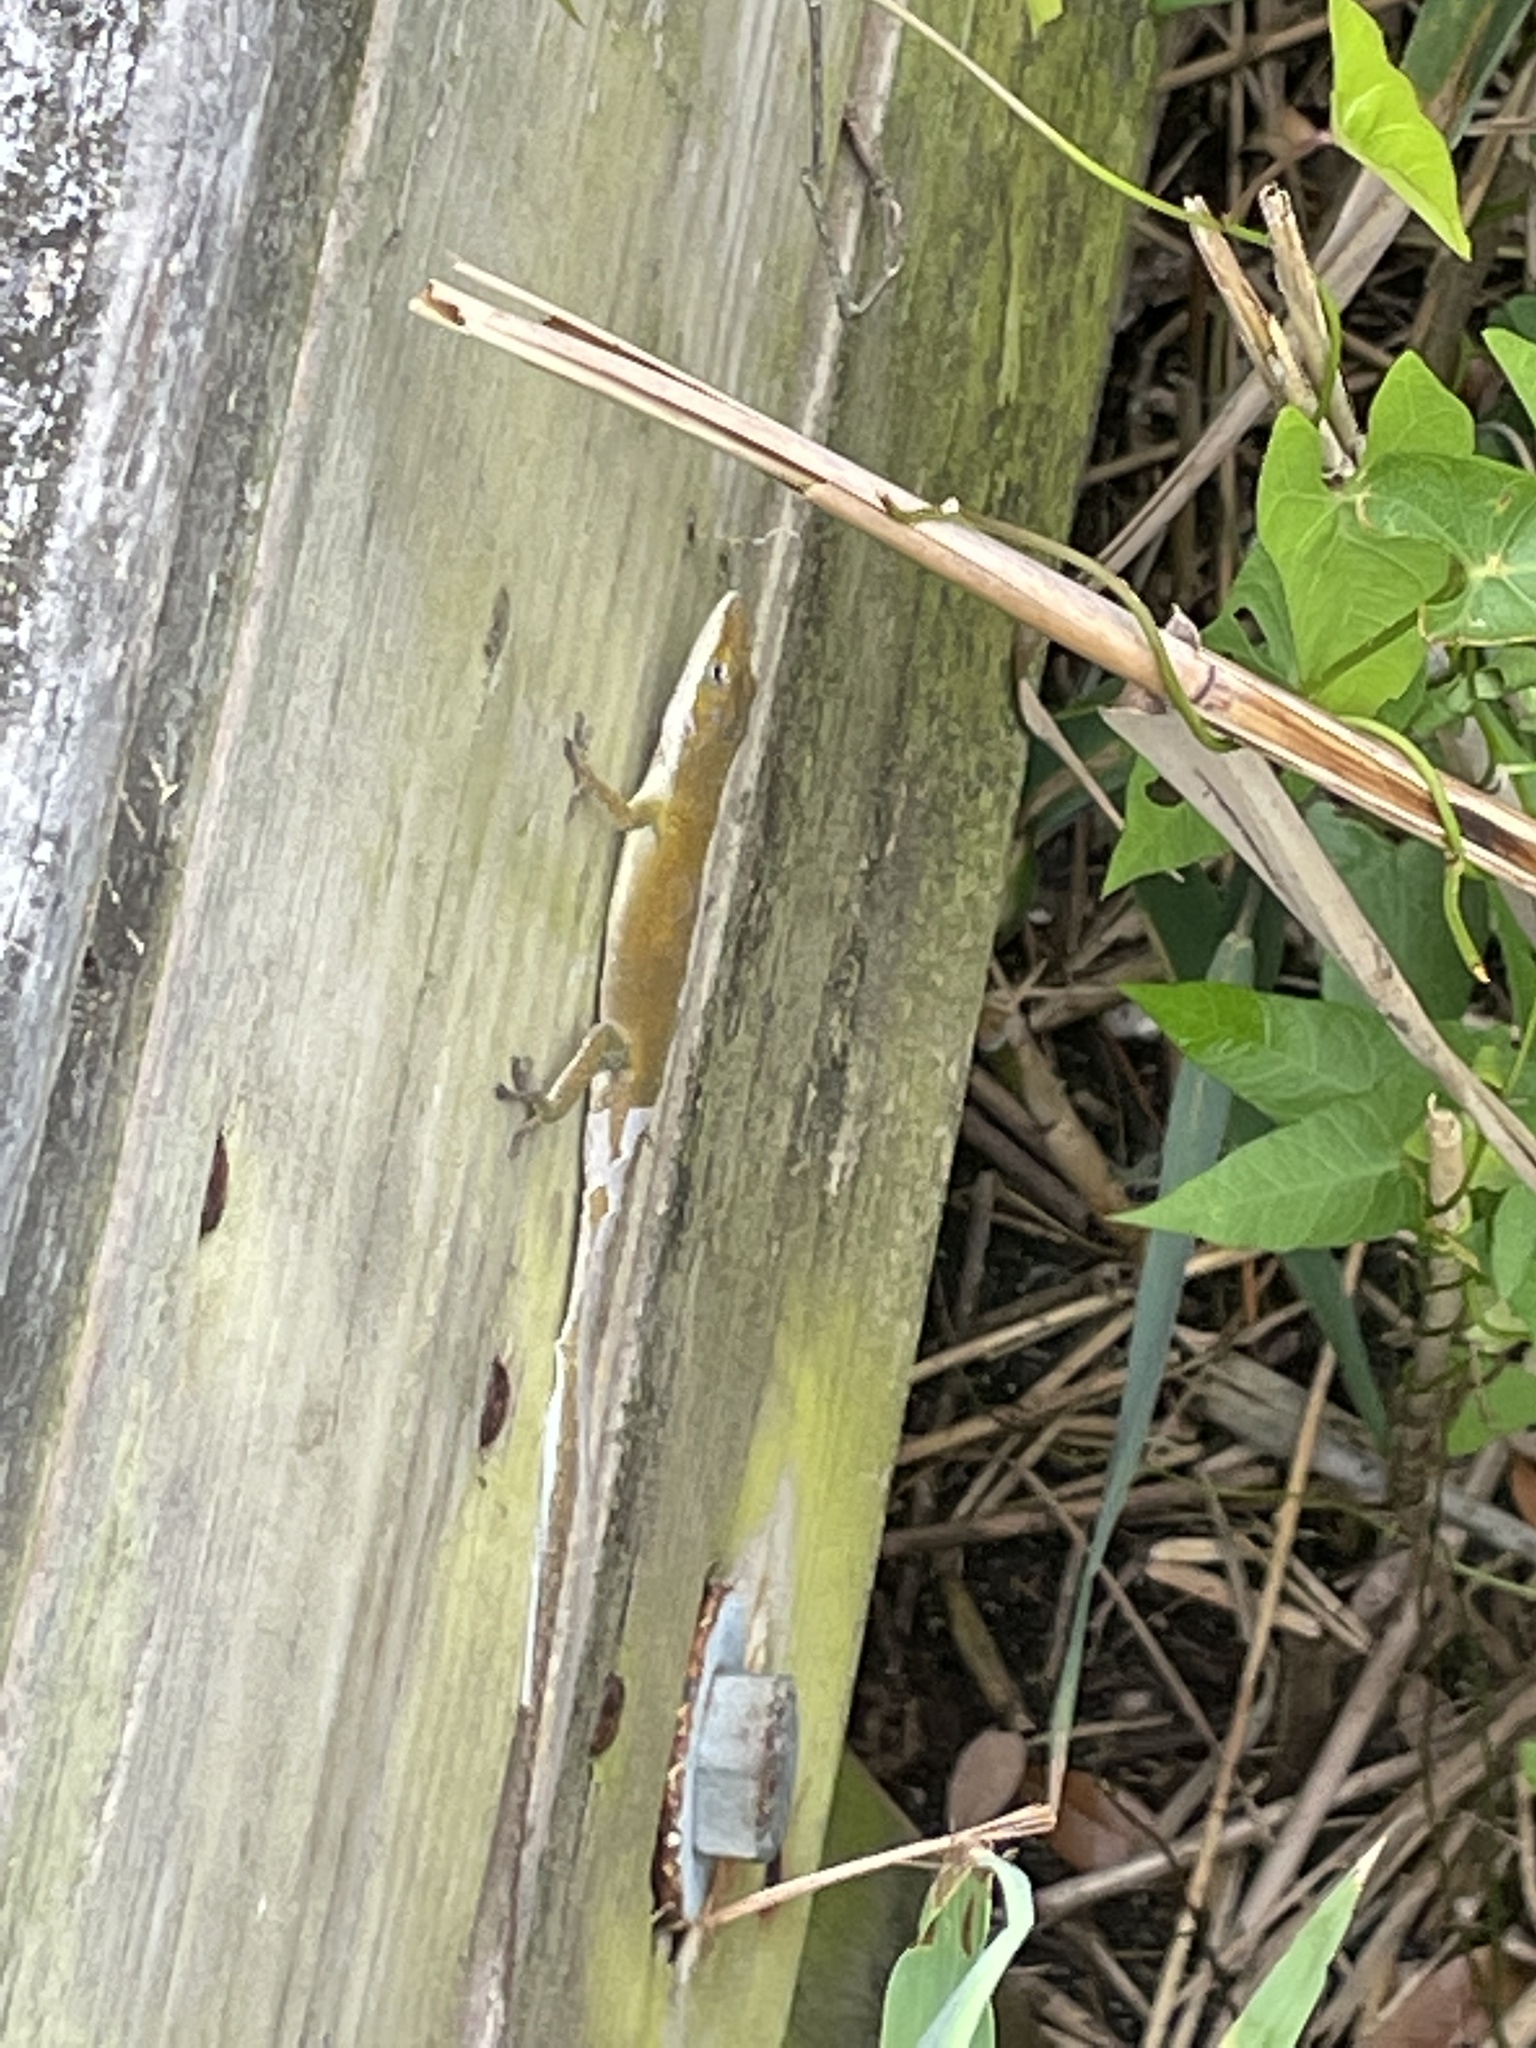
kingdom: Animalia
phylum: Chordata
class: Squamata
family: Dactyloidae
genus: Anolis
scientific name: Anolis carolinensis
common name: Green anole
